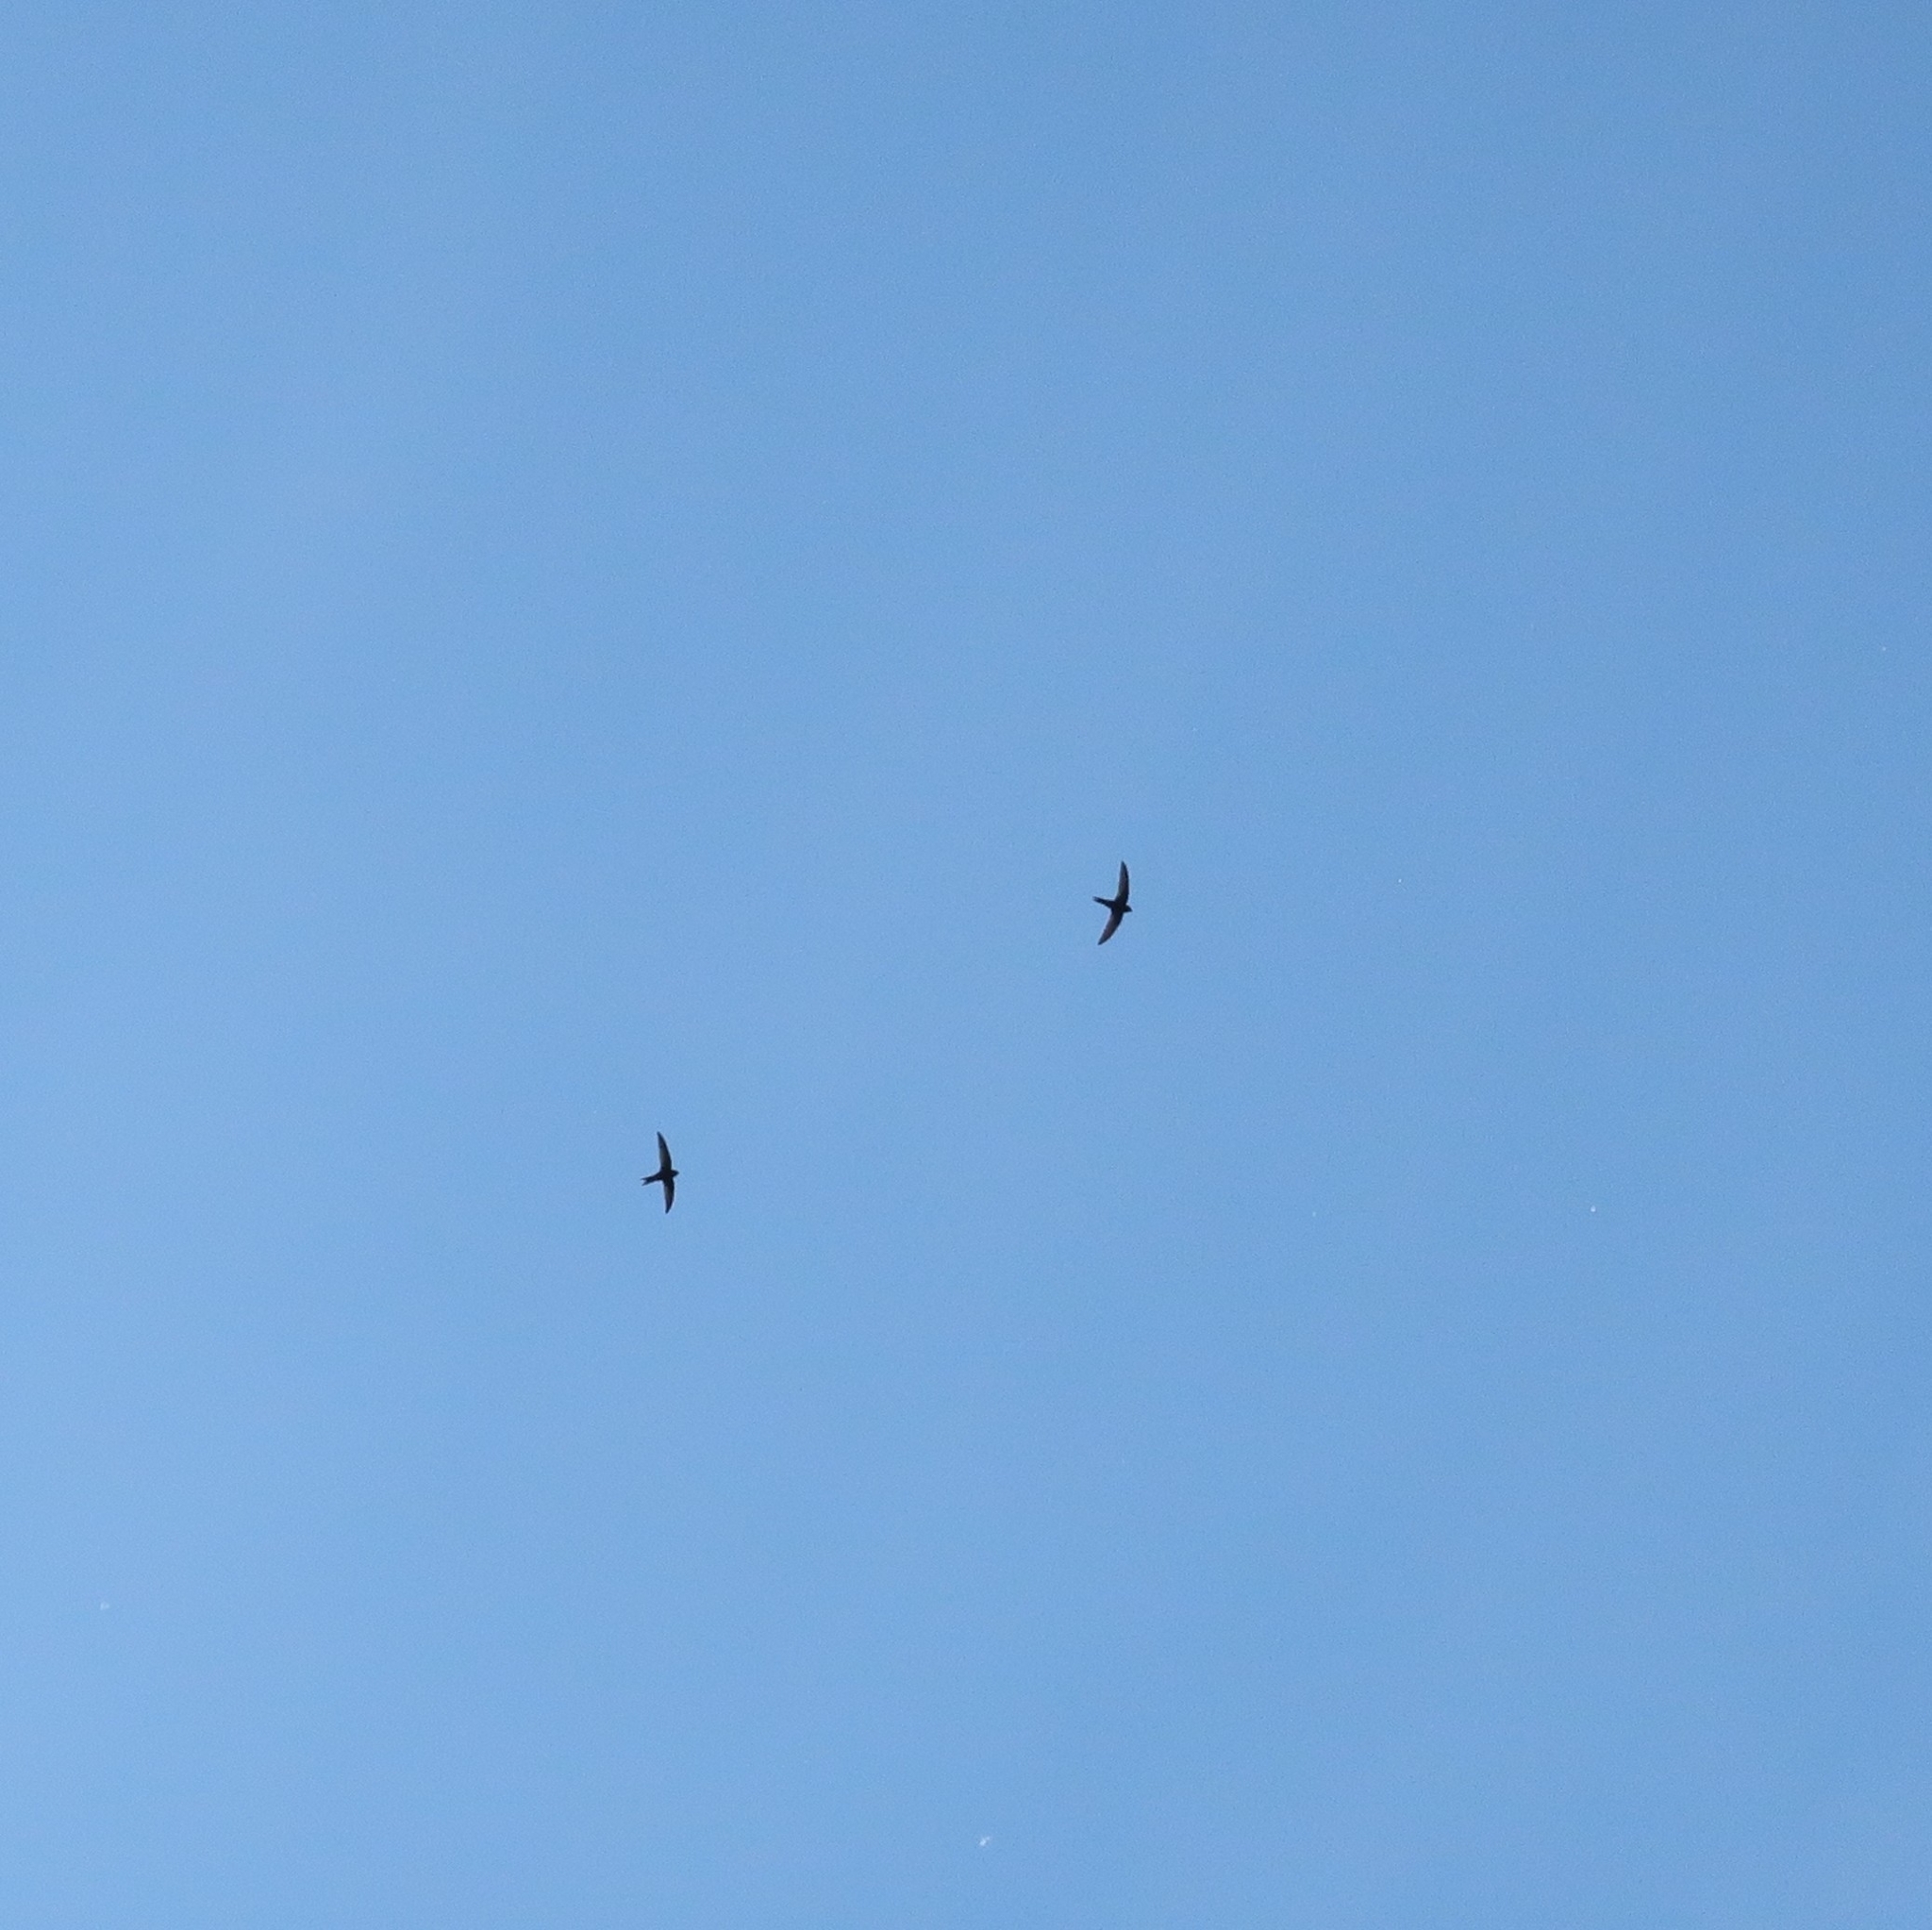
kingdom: Animalia
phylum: Chordata
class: Aves
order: Apodiformes
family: Apodidae
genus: Apus
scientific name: Apus apus
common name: Common swift
